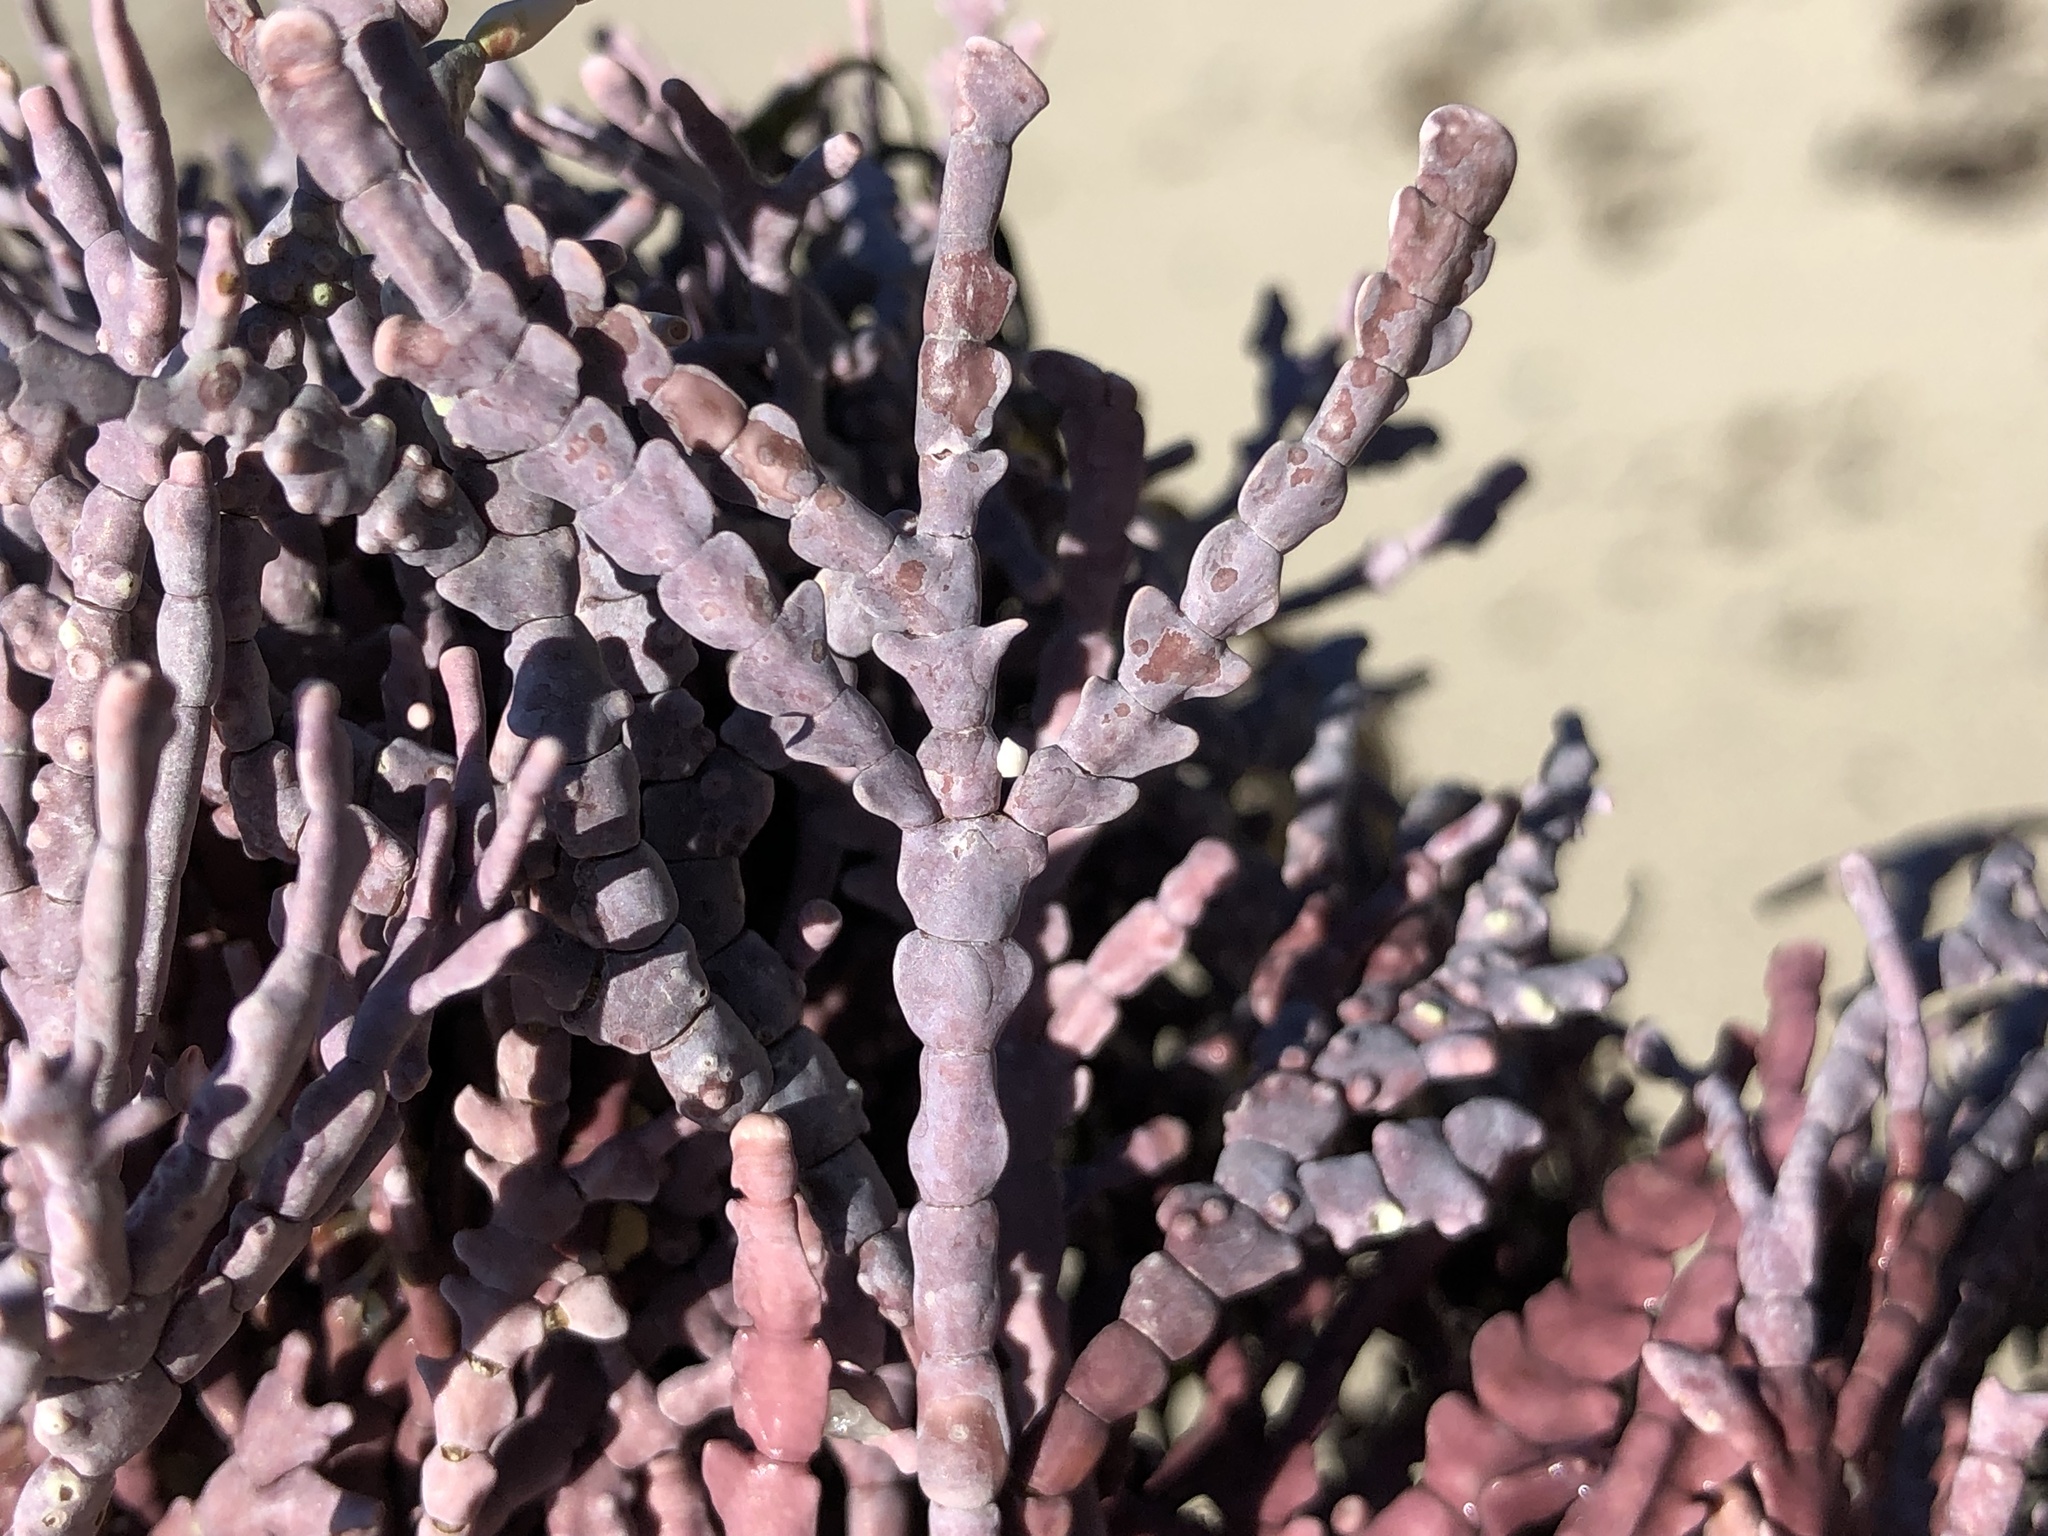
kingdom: Plantae
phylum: Rhodophyta
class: Florideophyceae
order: Corallinales
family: Corallinaceae
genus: Calliarthron
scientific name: Calliarthron tuberculosum
